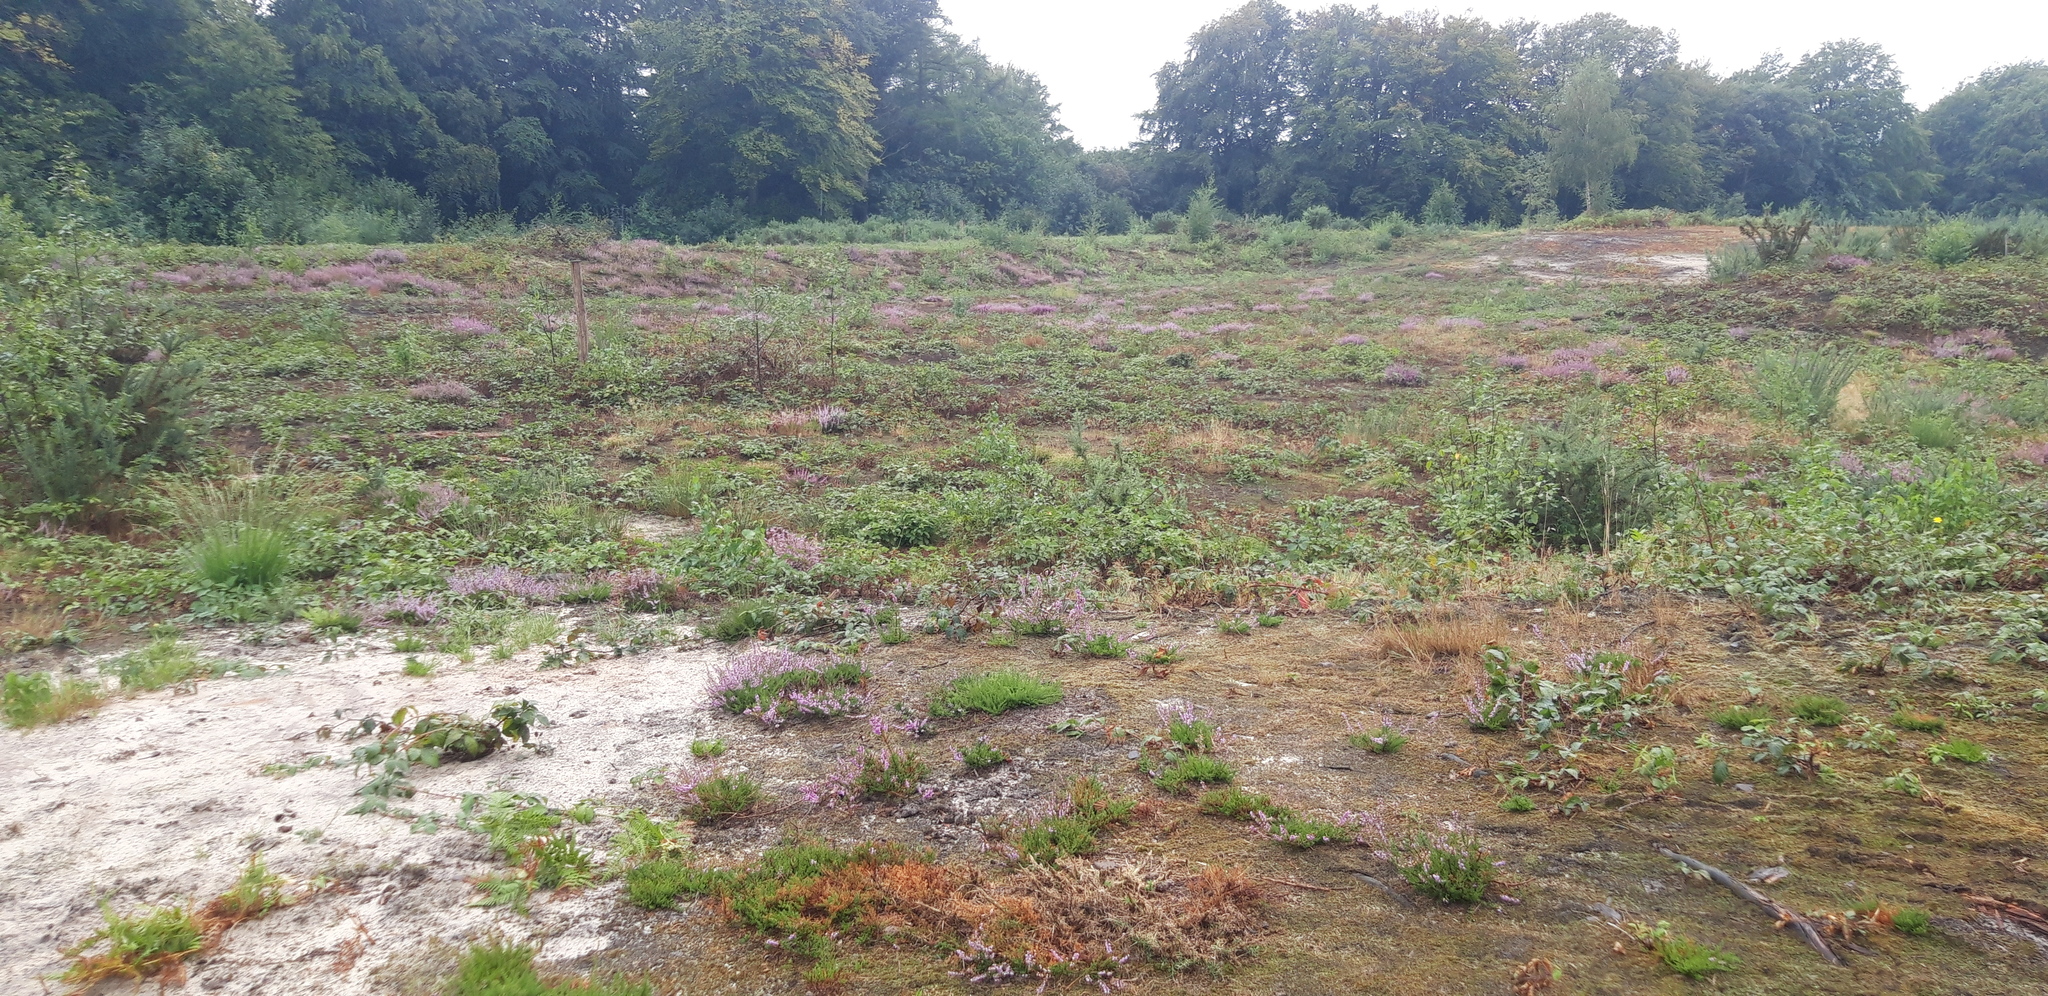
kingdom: Plantae
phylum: Tracheophyta
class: Magnoliopsida
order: Ericales
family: Ericaceae
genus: Calluna
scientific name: Calluna vulgaris
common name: Heather
